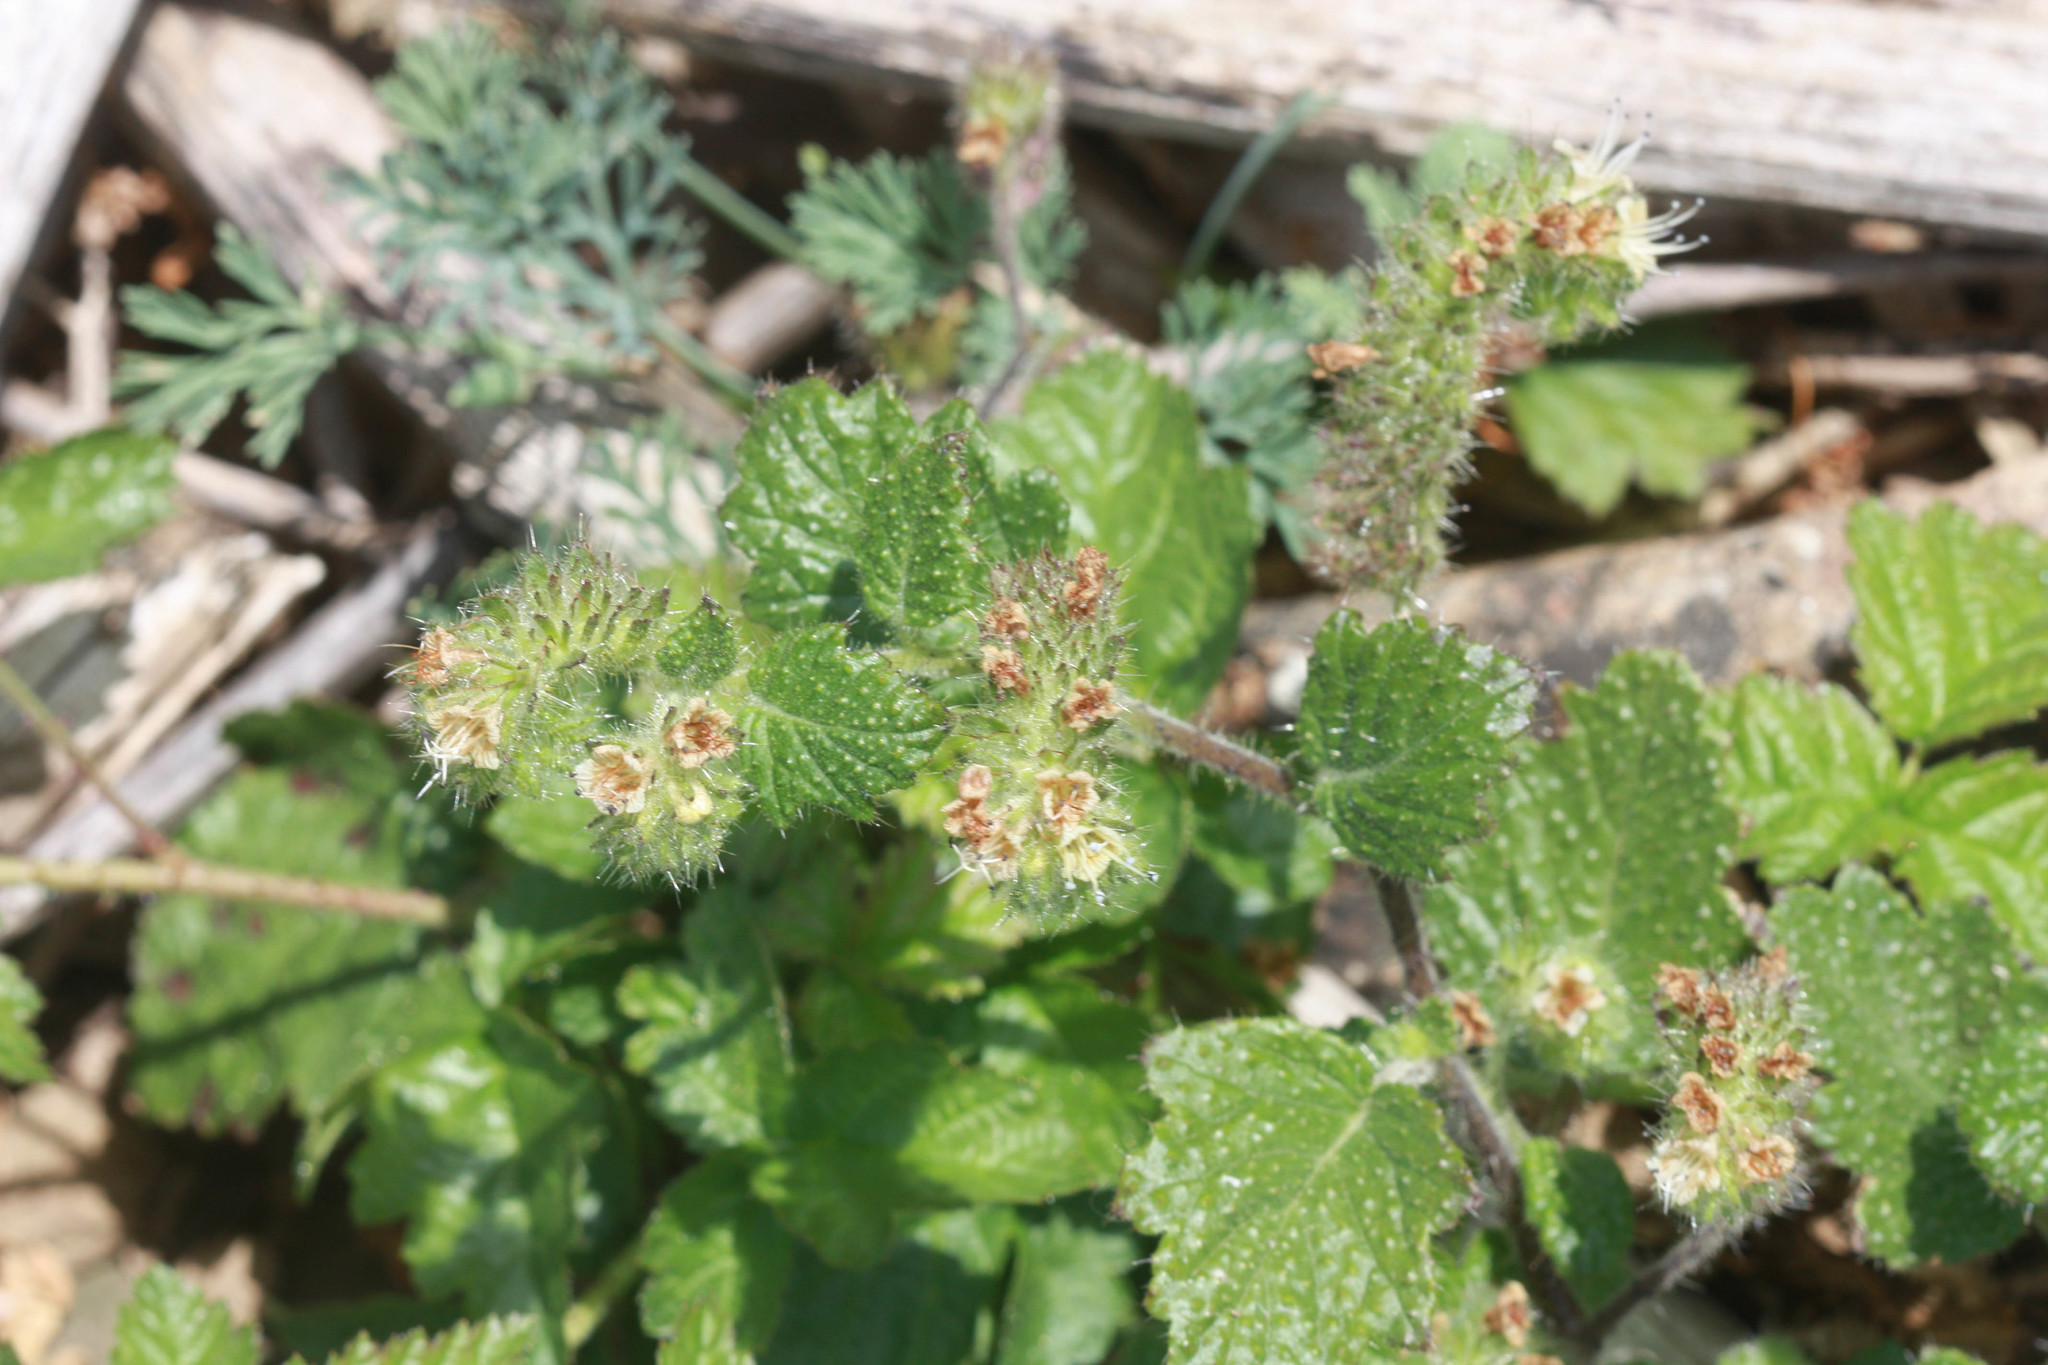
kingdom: Plantae
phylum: Tracheophyta
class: Magnoliopsida
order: Boraginales
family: Hydrophyllaceae
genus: Phacelia
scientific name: Phacelia malvifolia
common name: Mallow-leaf phacelia
